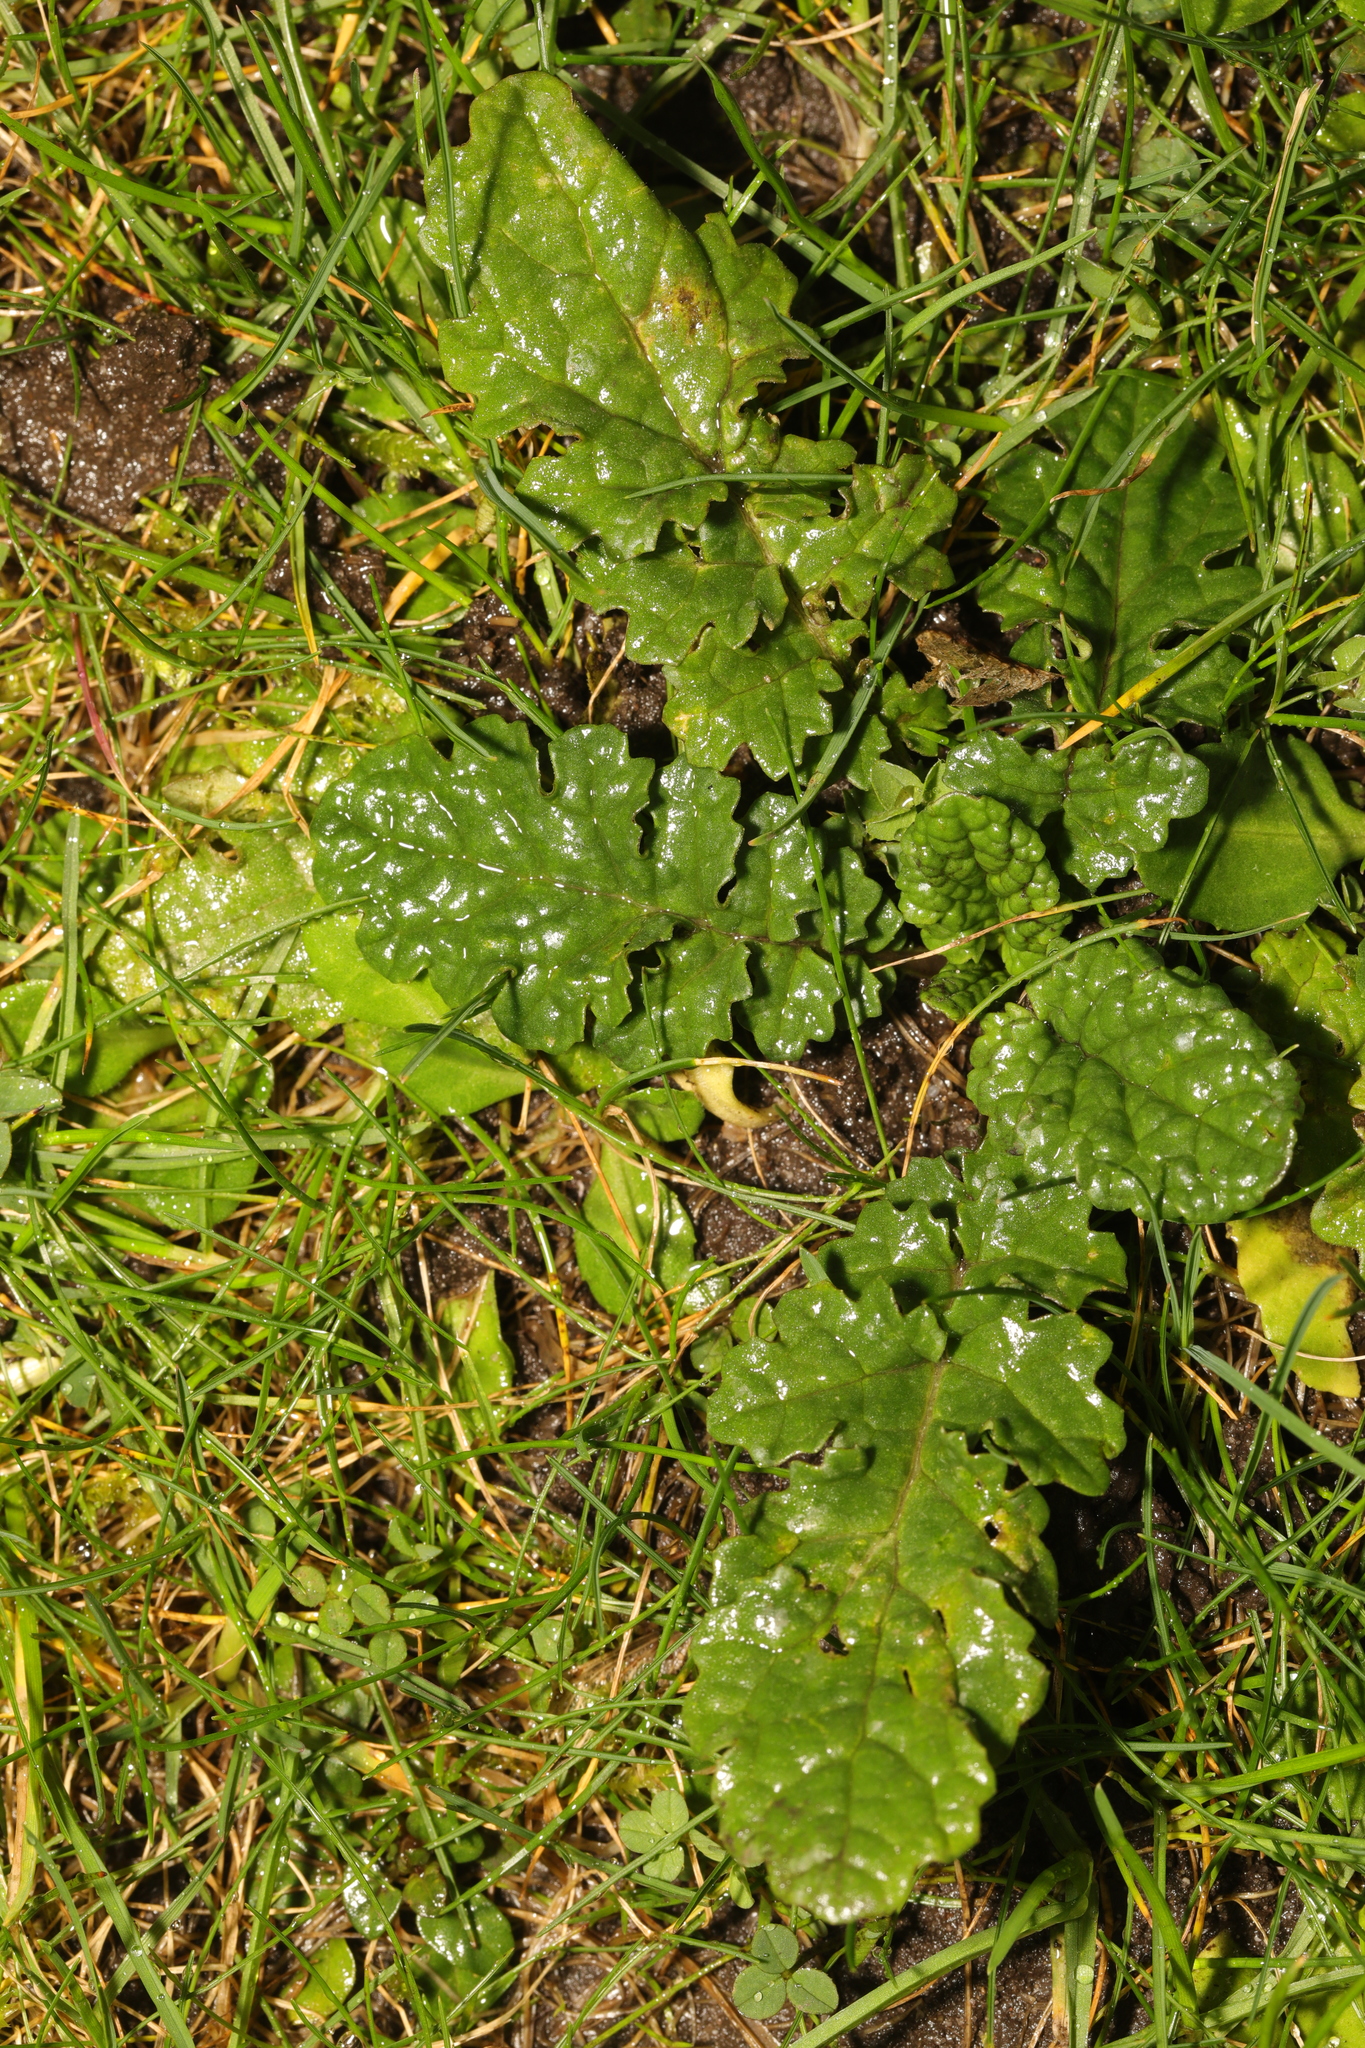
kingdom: Plantae
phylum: Tracheophyta
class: Magnoliopsida
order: Asterales
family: Asteraceae
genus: Jacobaea
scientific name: Jacobaea vulgaris
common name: Stinking willie
